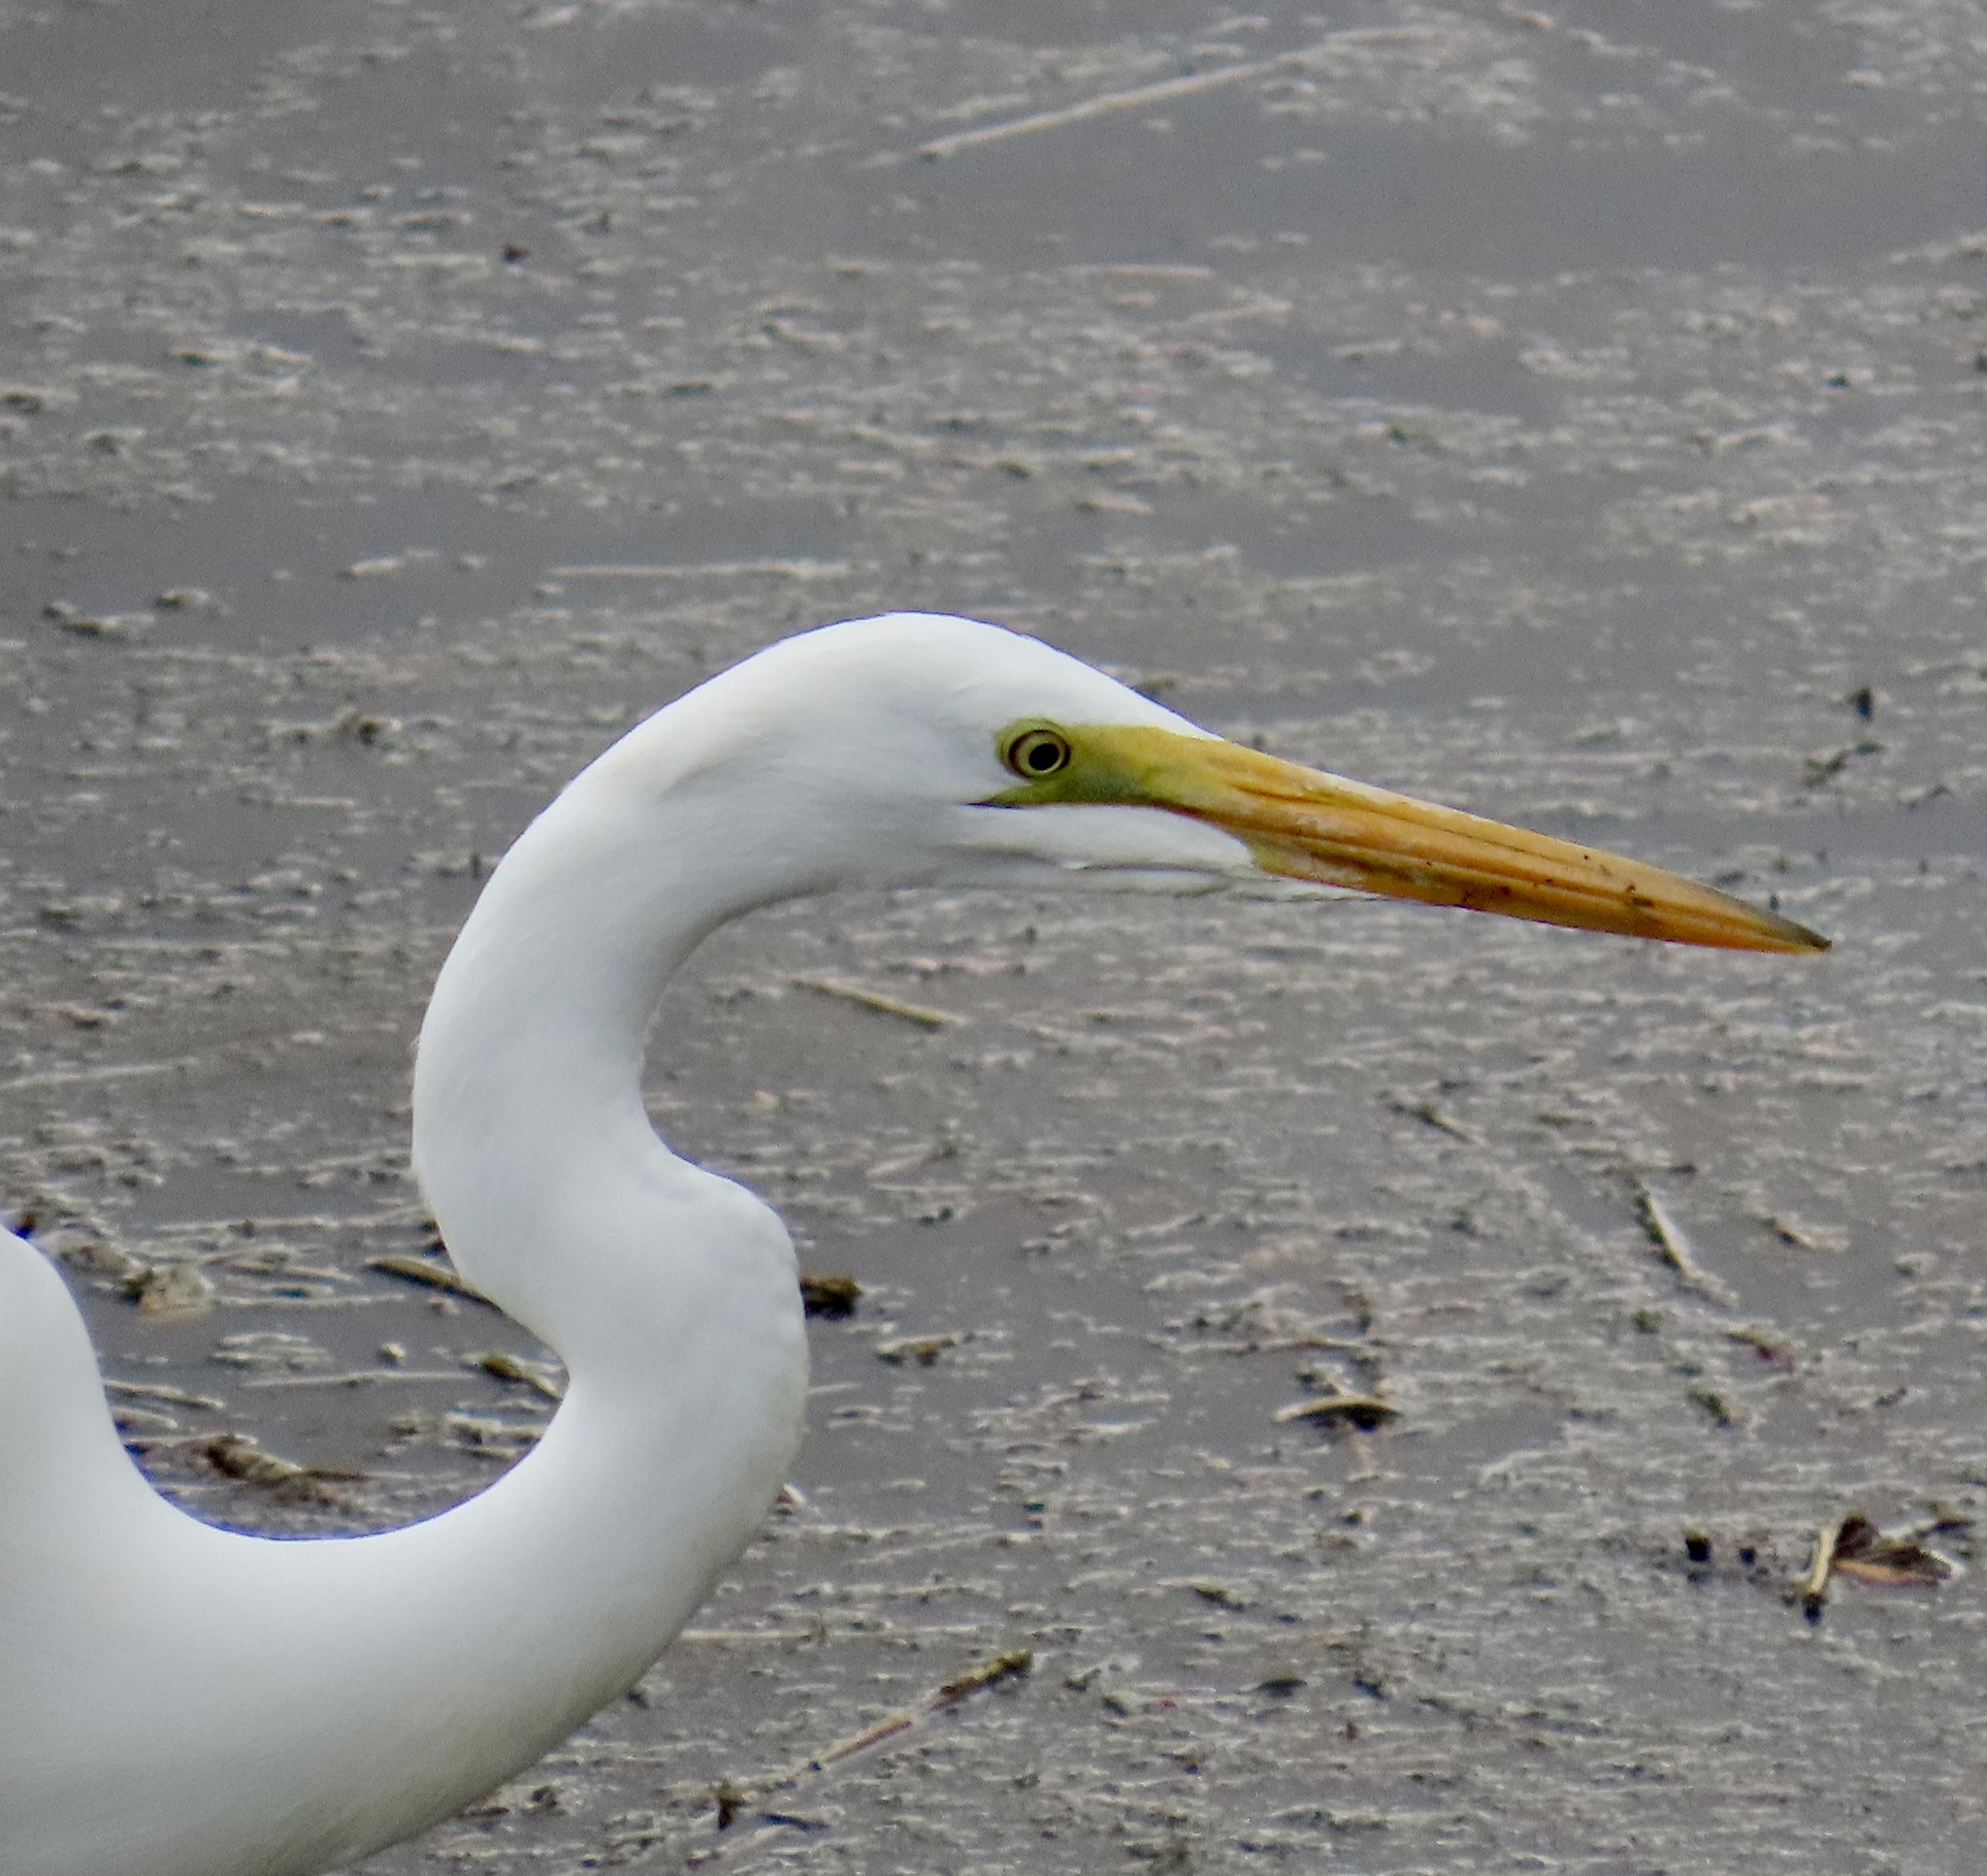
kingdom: Animalia
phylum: Chordata
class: Aves
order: Pelecaniformes
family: Ardeidae
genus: Ardea
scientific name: Ardea alba
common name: Great egret
